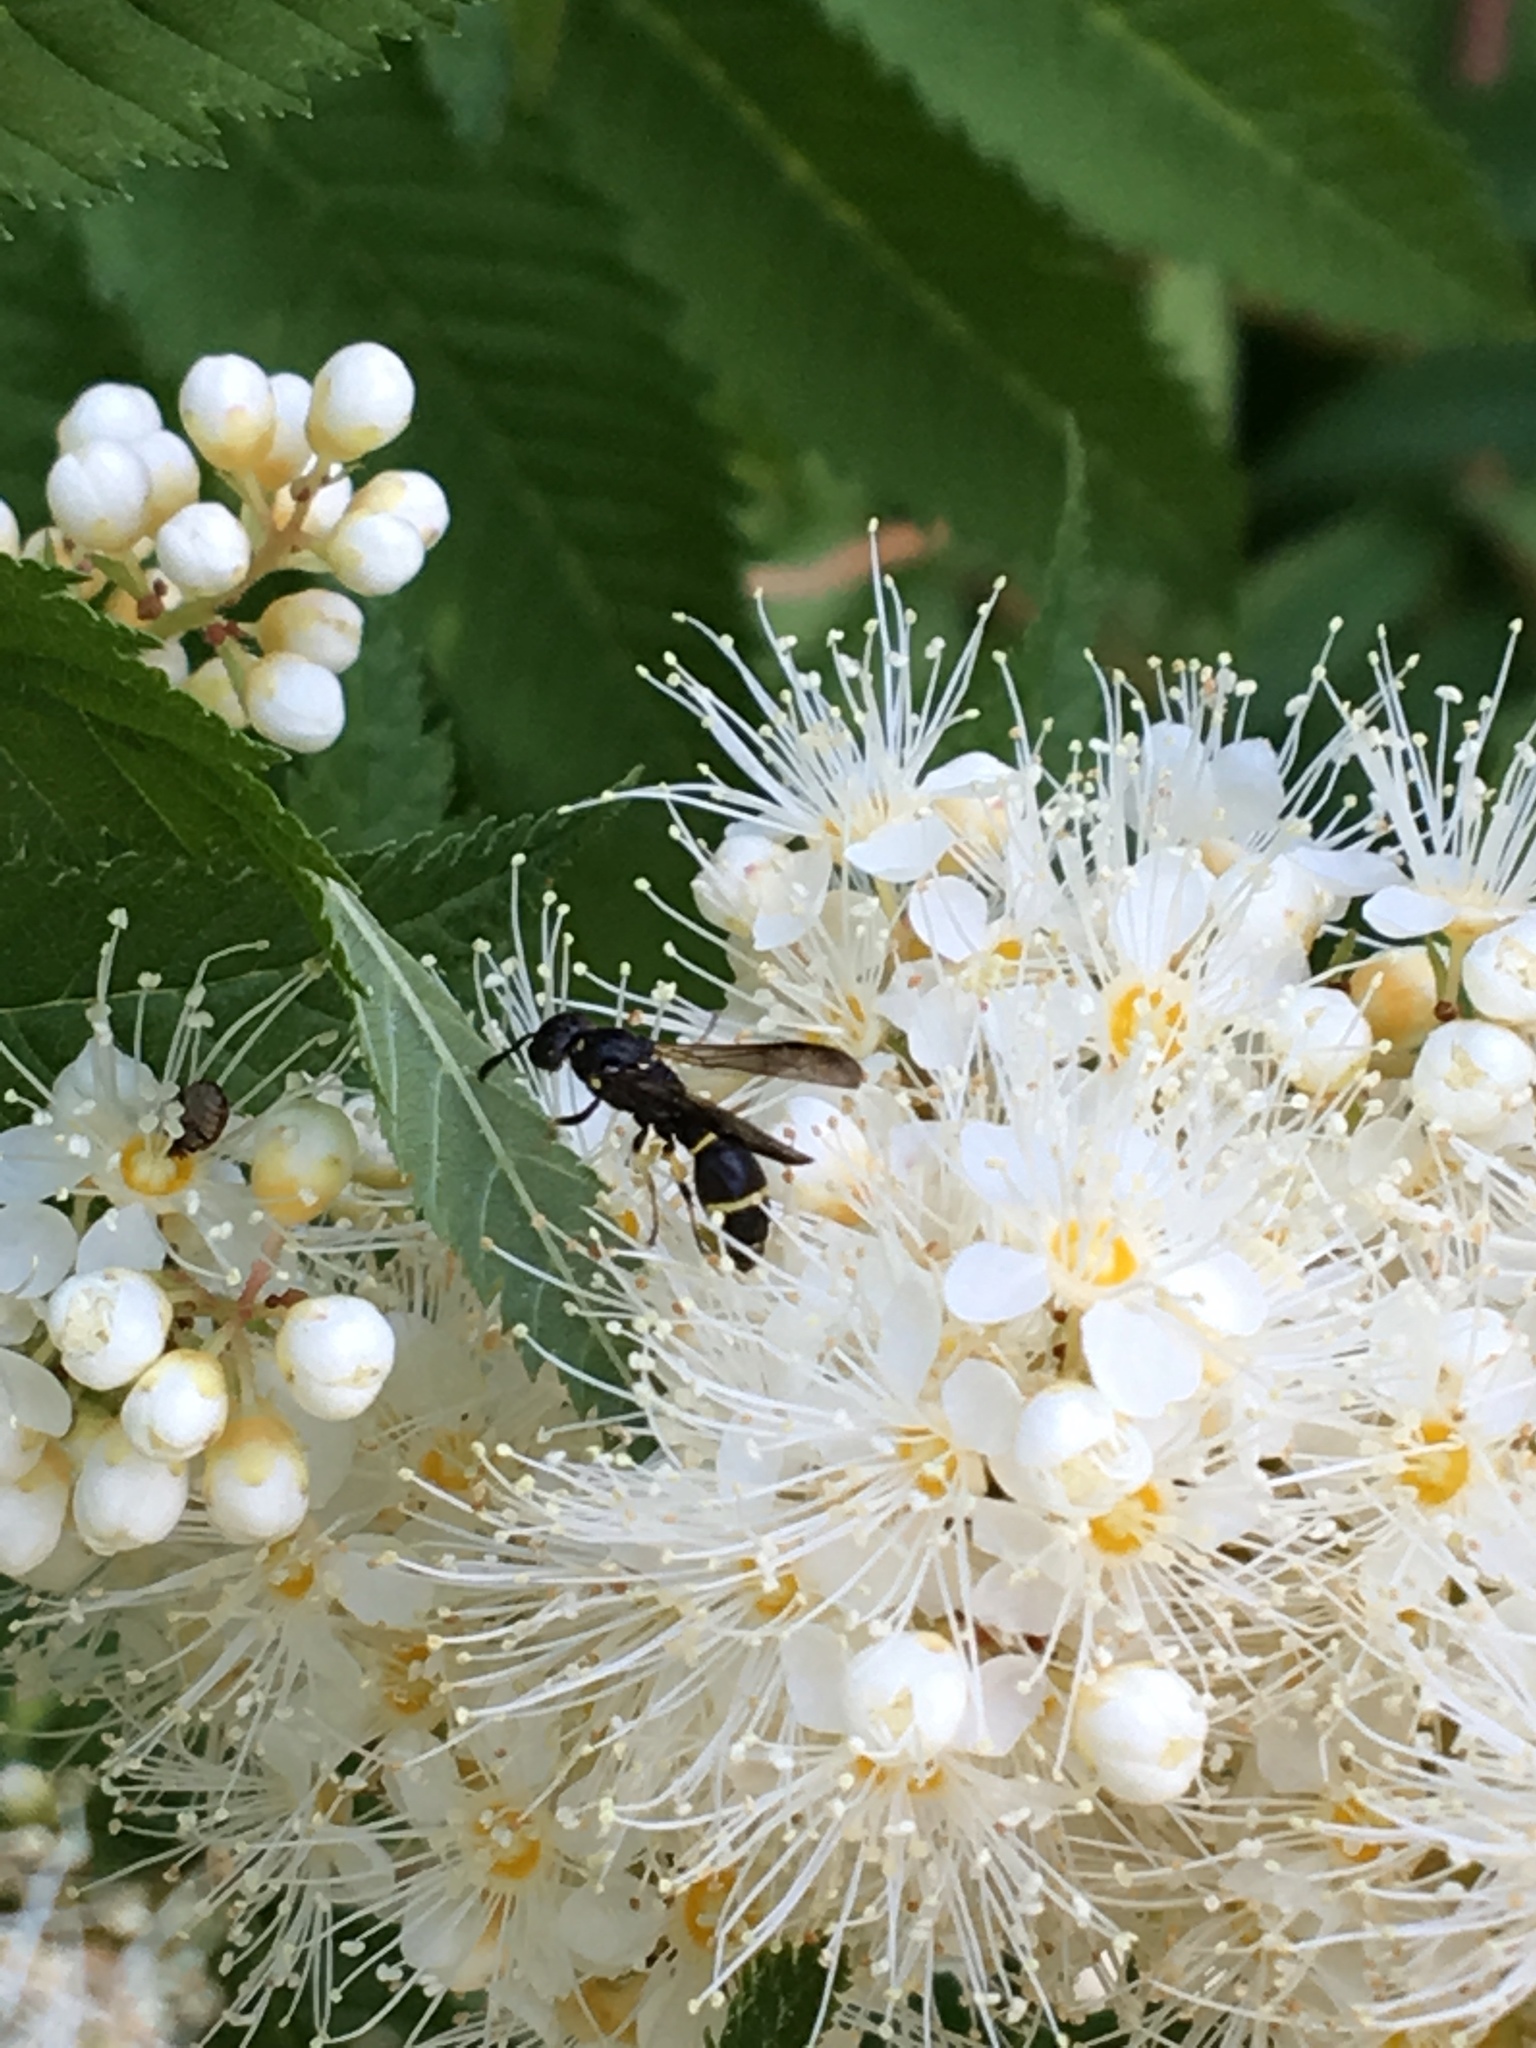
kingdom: Animalia
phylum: Arthropoda
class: Insecta
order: Hymenoptera
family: Eumenidae
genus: Symmorphus
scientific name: Symmorphus canadensis
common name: Canadian potter wasp
